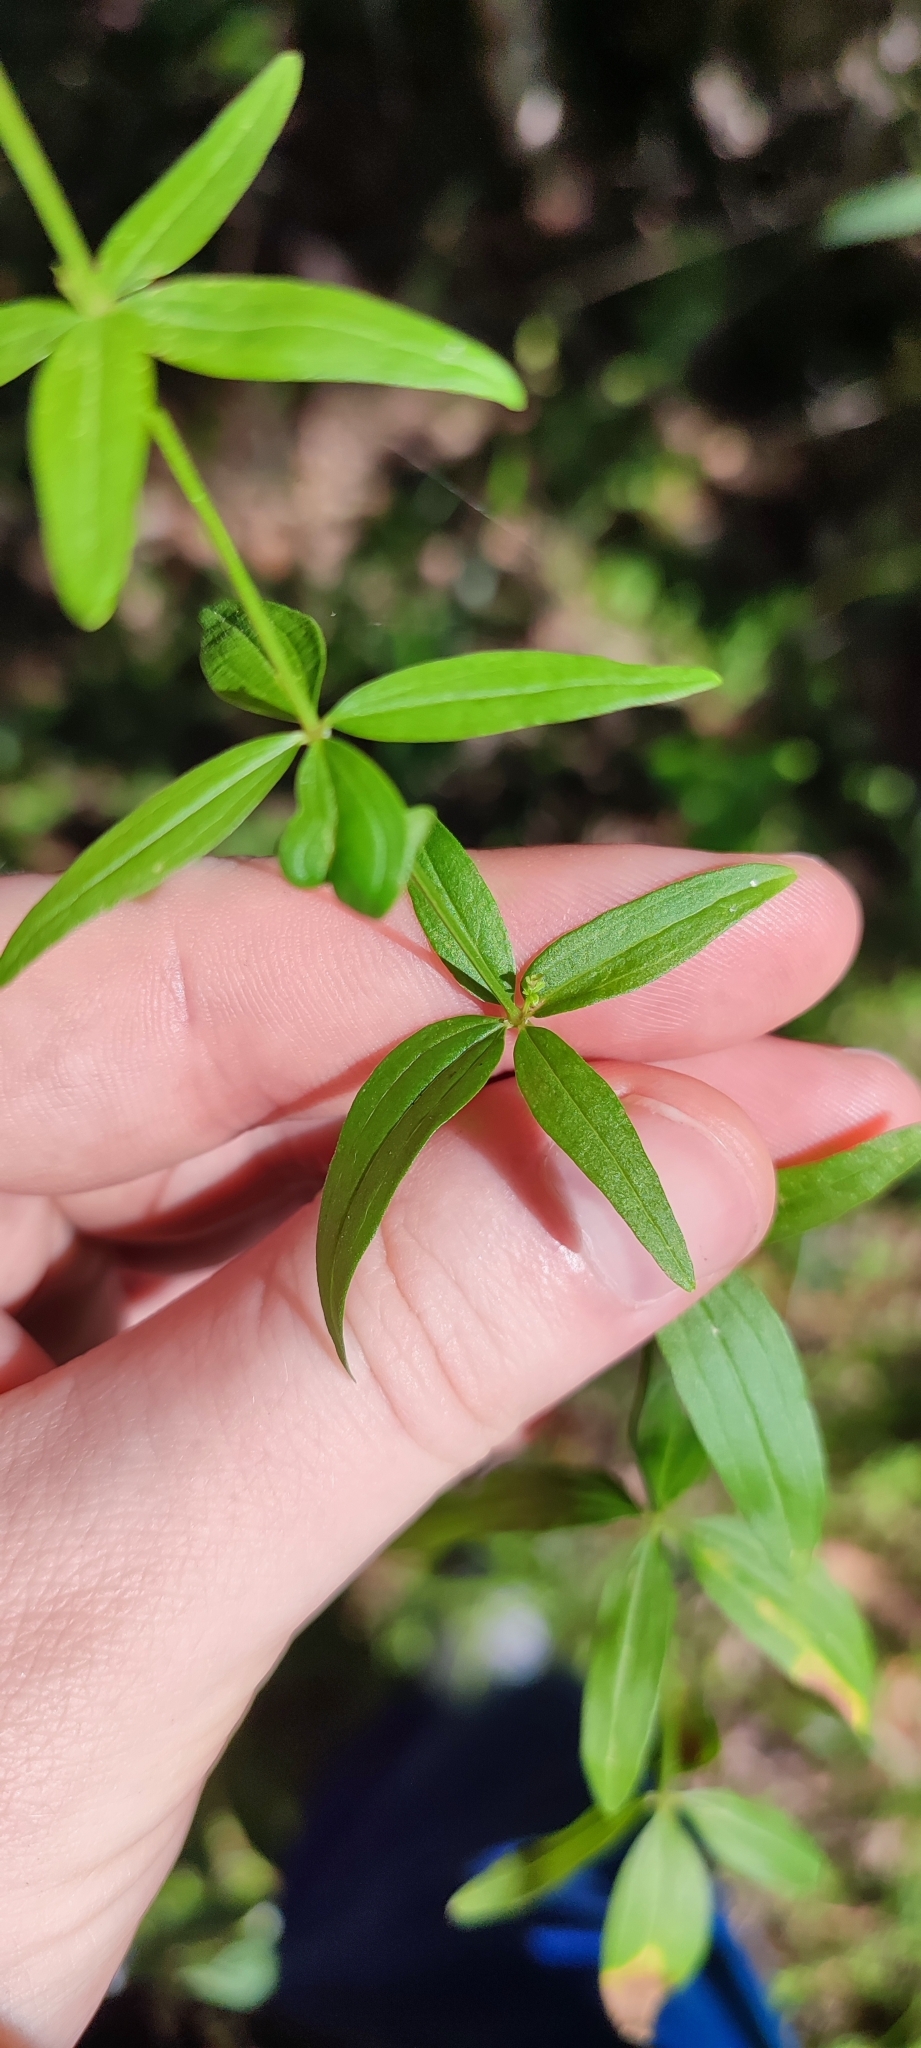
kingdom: Plantae
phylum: Tracheophyta
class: Magnoliopsida
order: Gentianales
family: Rubiaceae
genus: Galium
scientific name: Galium pseudoboreale
